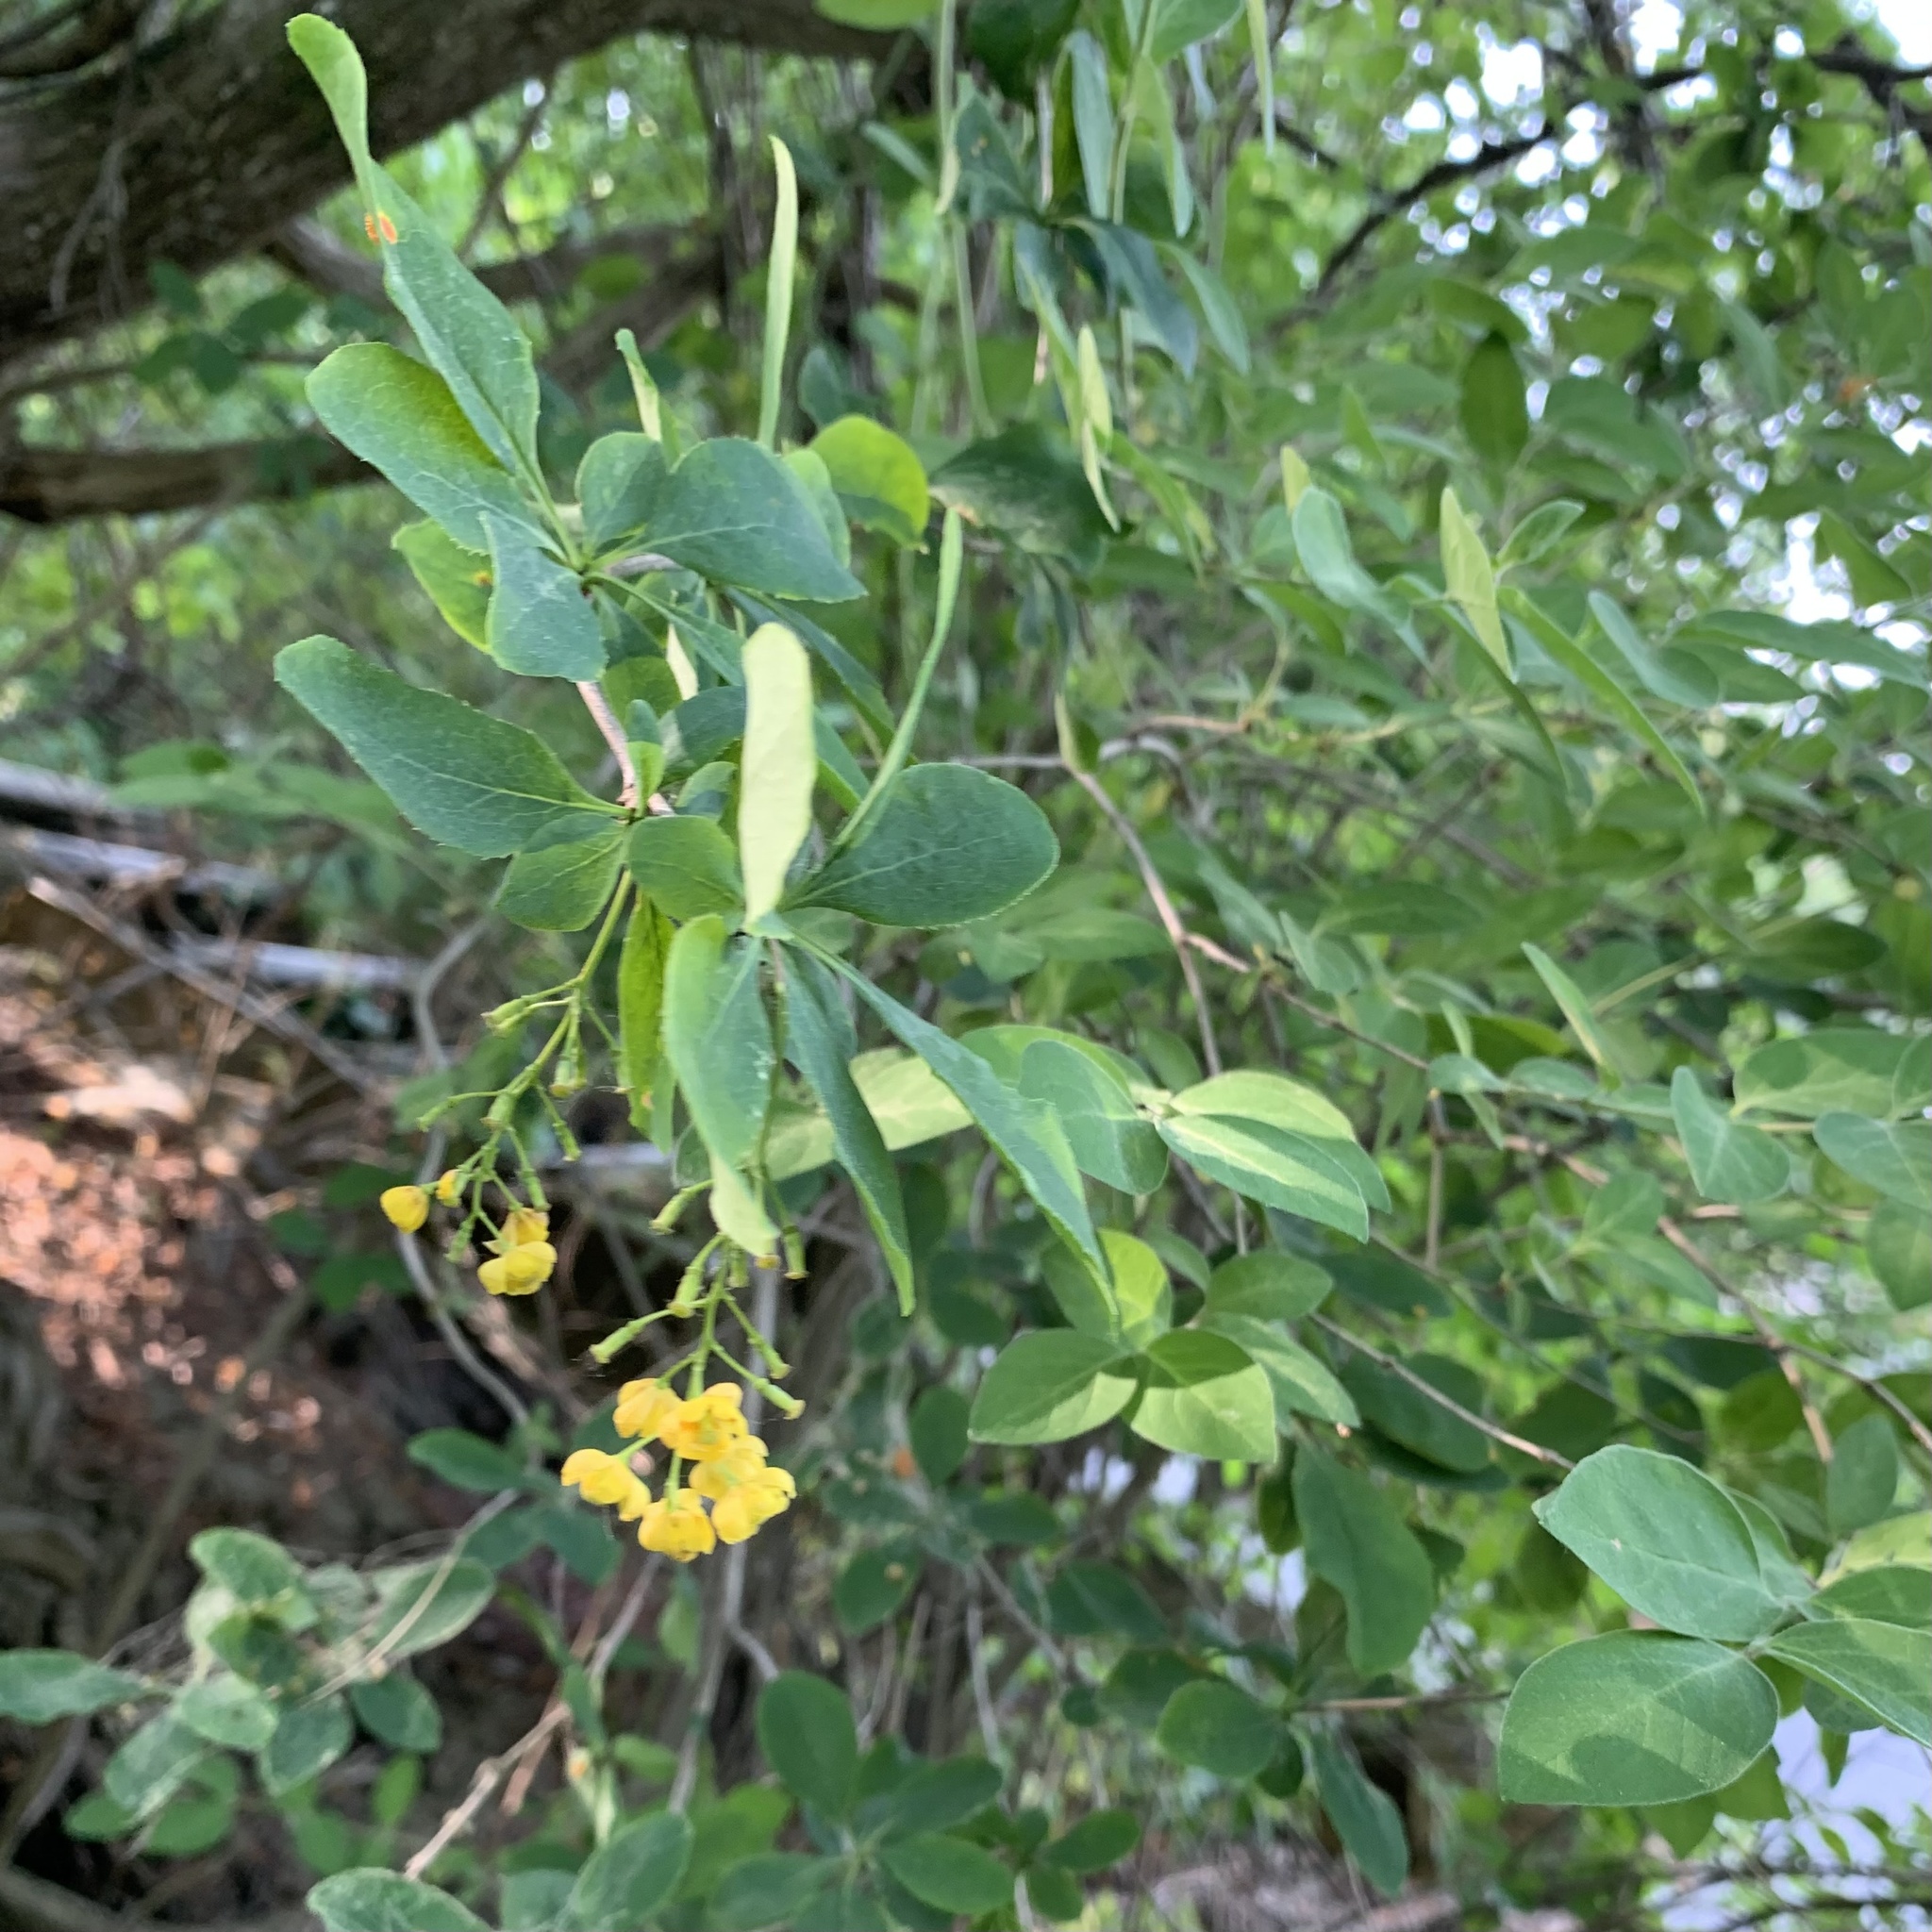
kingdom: Plantae
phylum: Tracheophyta
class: Magnoliopsida
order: Ranunculales
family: Berberidaceae
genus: Berberis
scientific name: Berberis vulgaris
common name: Barberry
